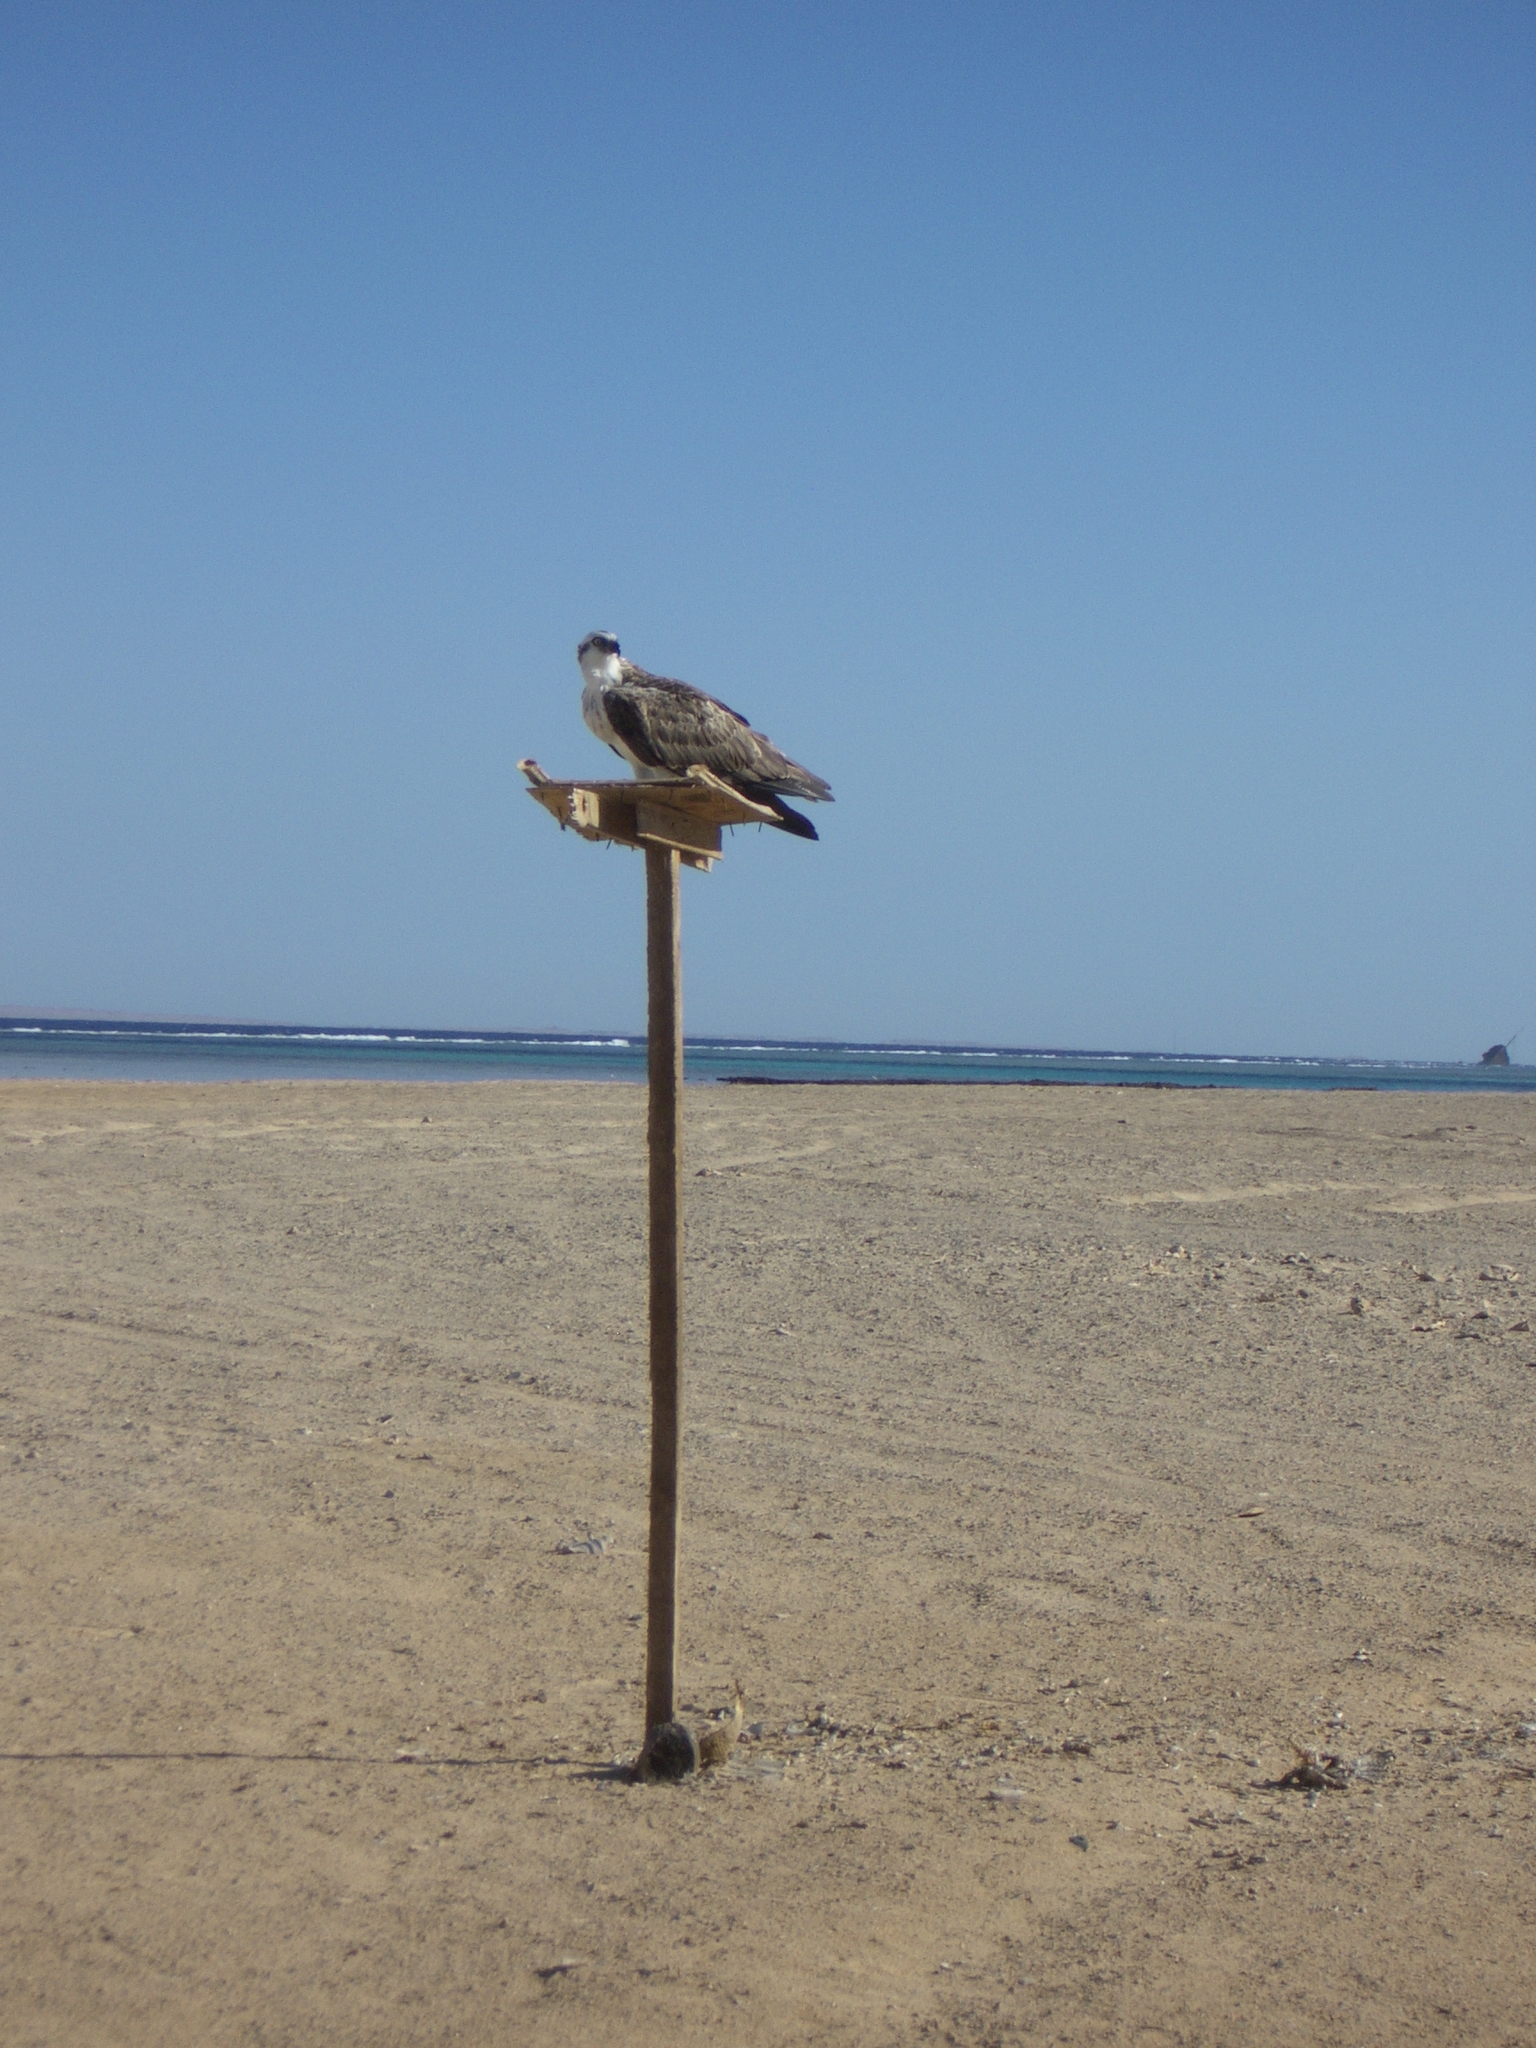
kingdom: Animalia
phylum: Chordata
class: Aves
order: Accipitriformes
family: Pandionidae
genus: Pandion
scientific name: Pandion haliaetus
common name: Osprey
